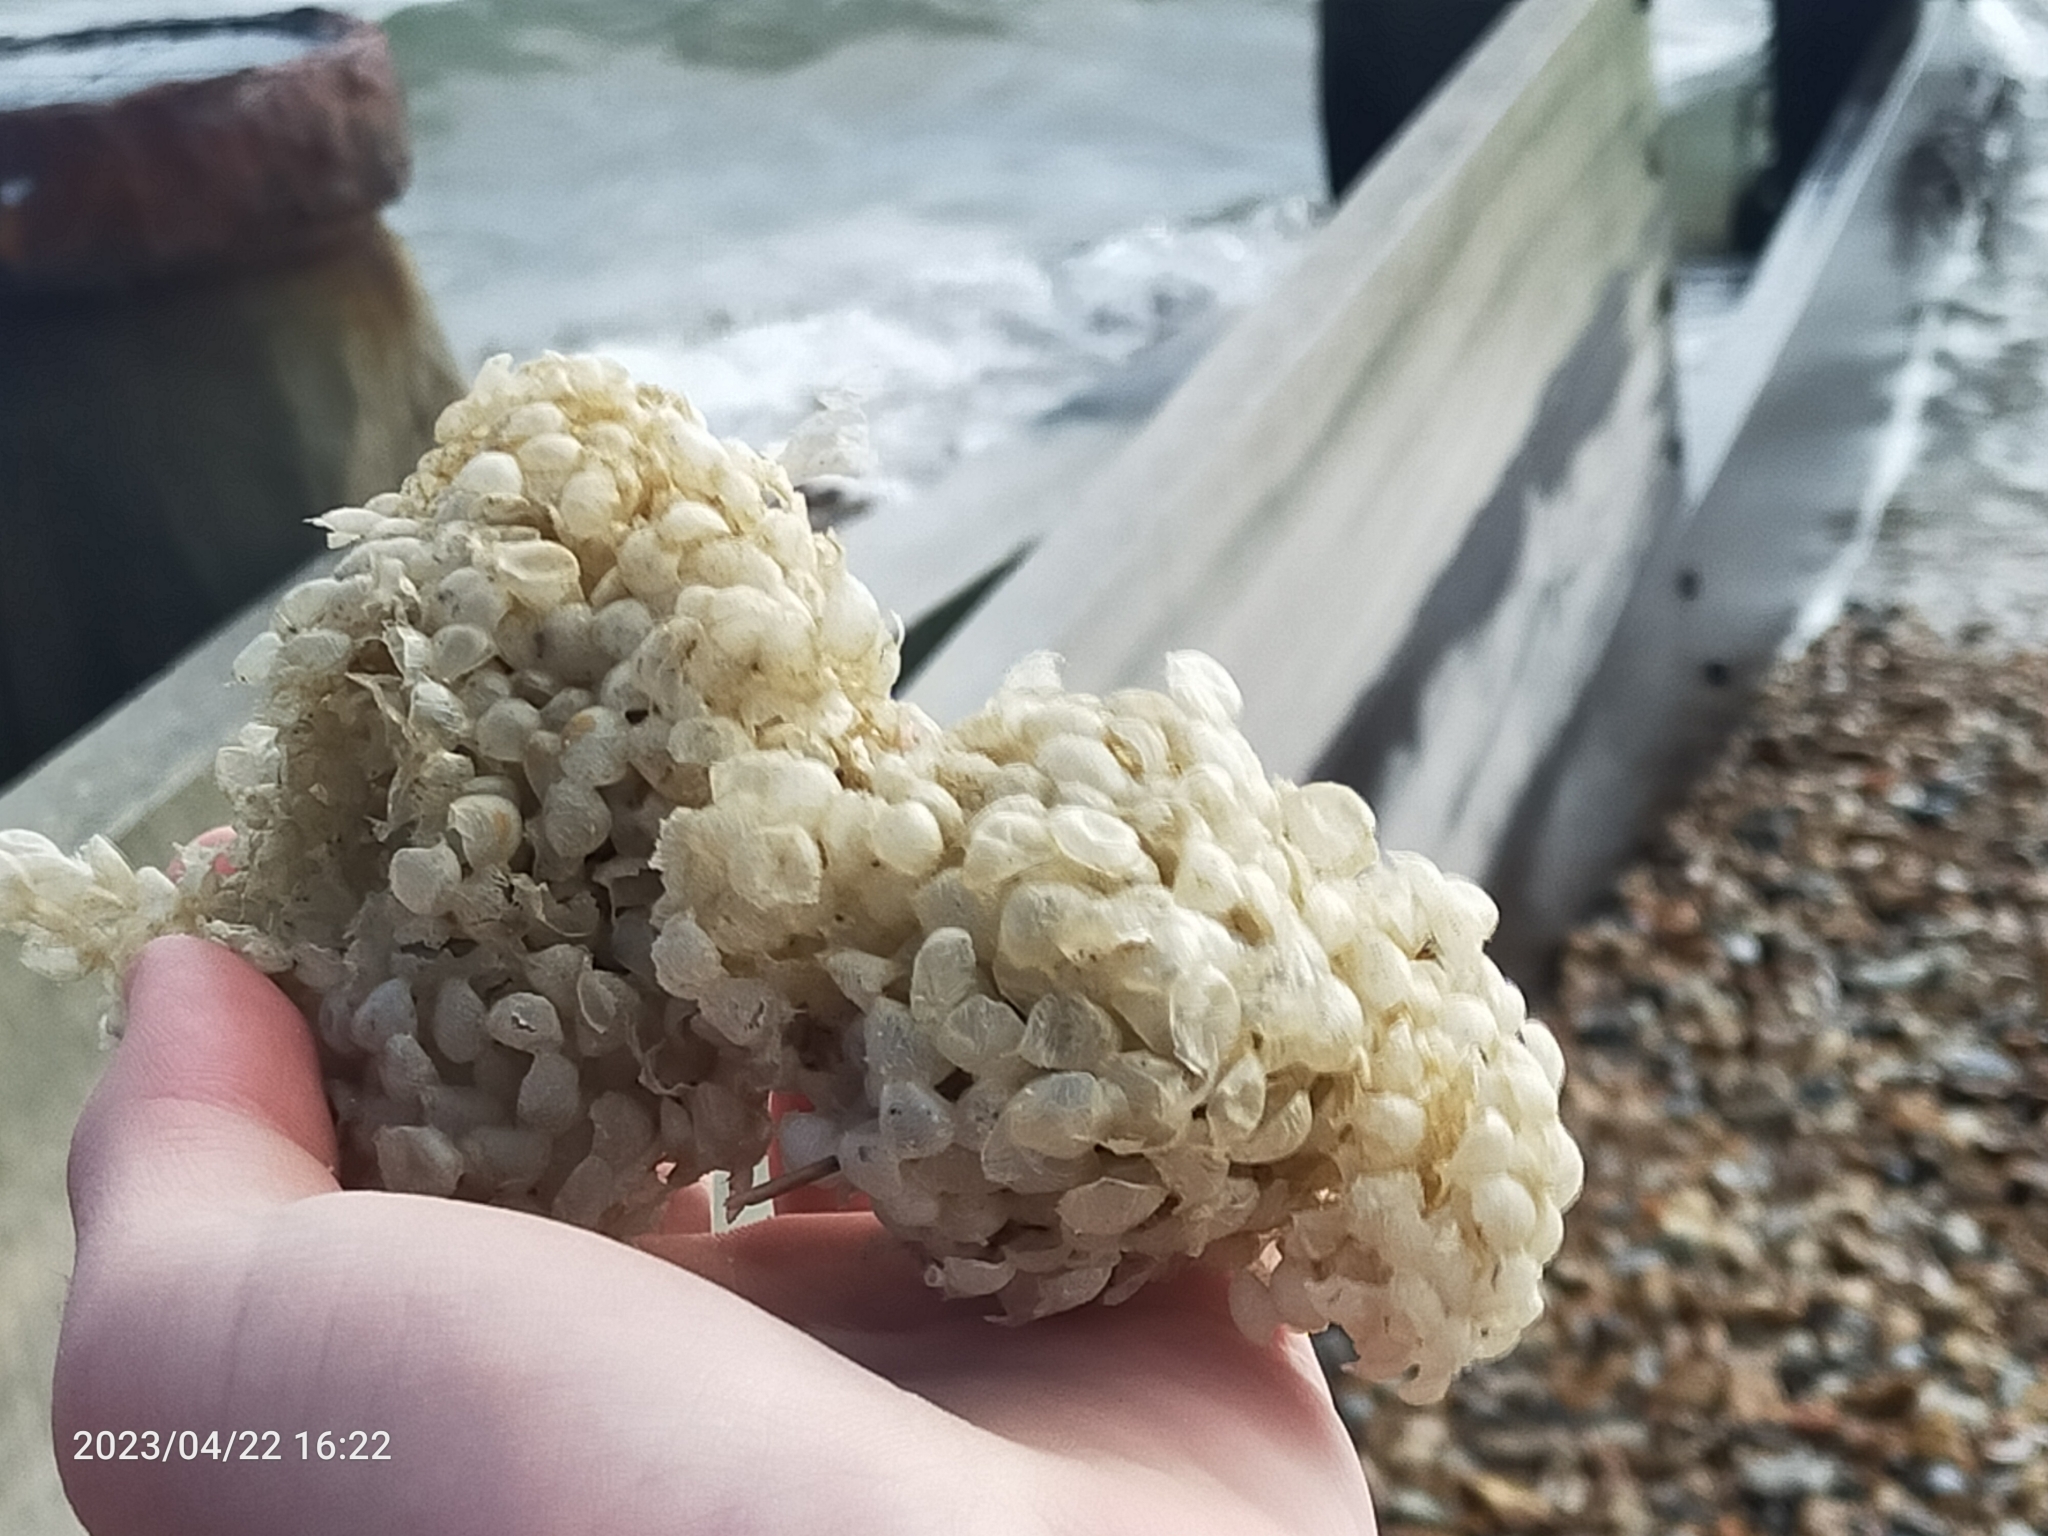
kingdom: Animalia
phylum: Mollusca
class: Gastropoda
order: Neogastropoda
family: Buccinidae
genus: Buccinum
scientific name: Buccinum undatum
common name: Common whelk
